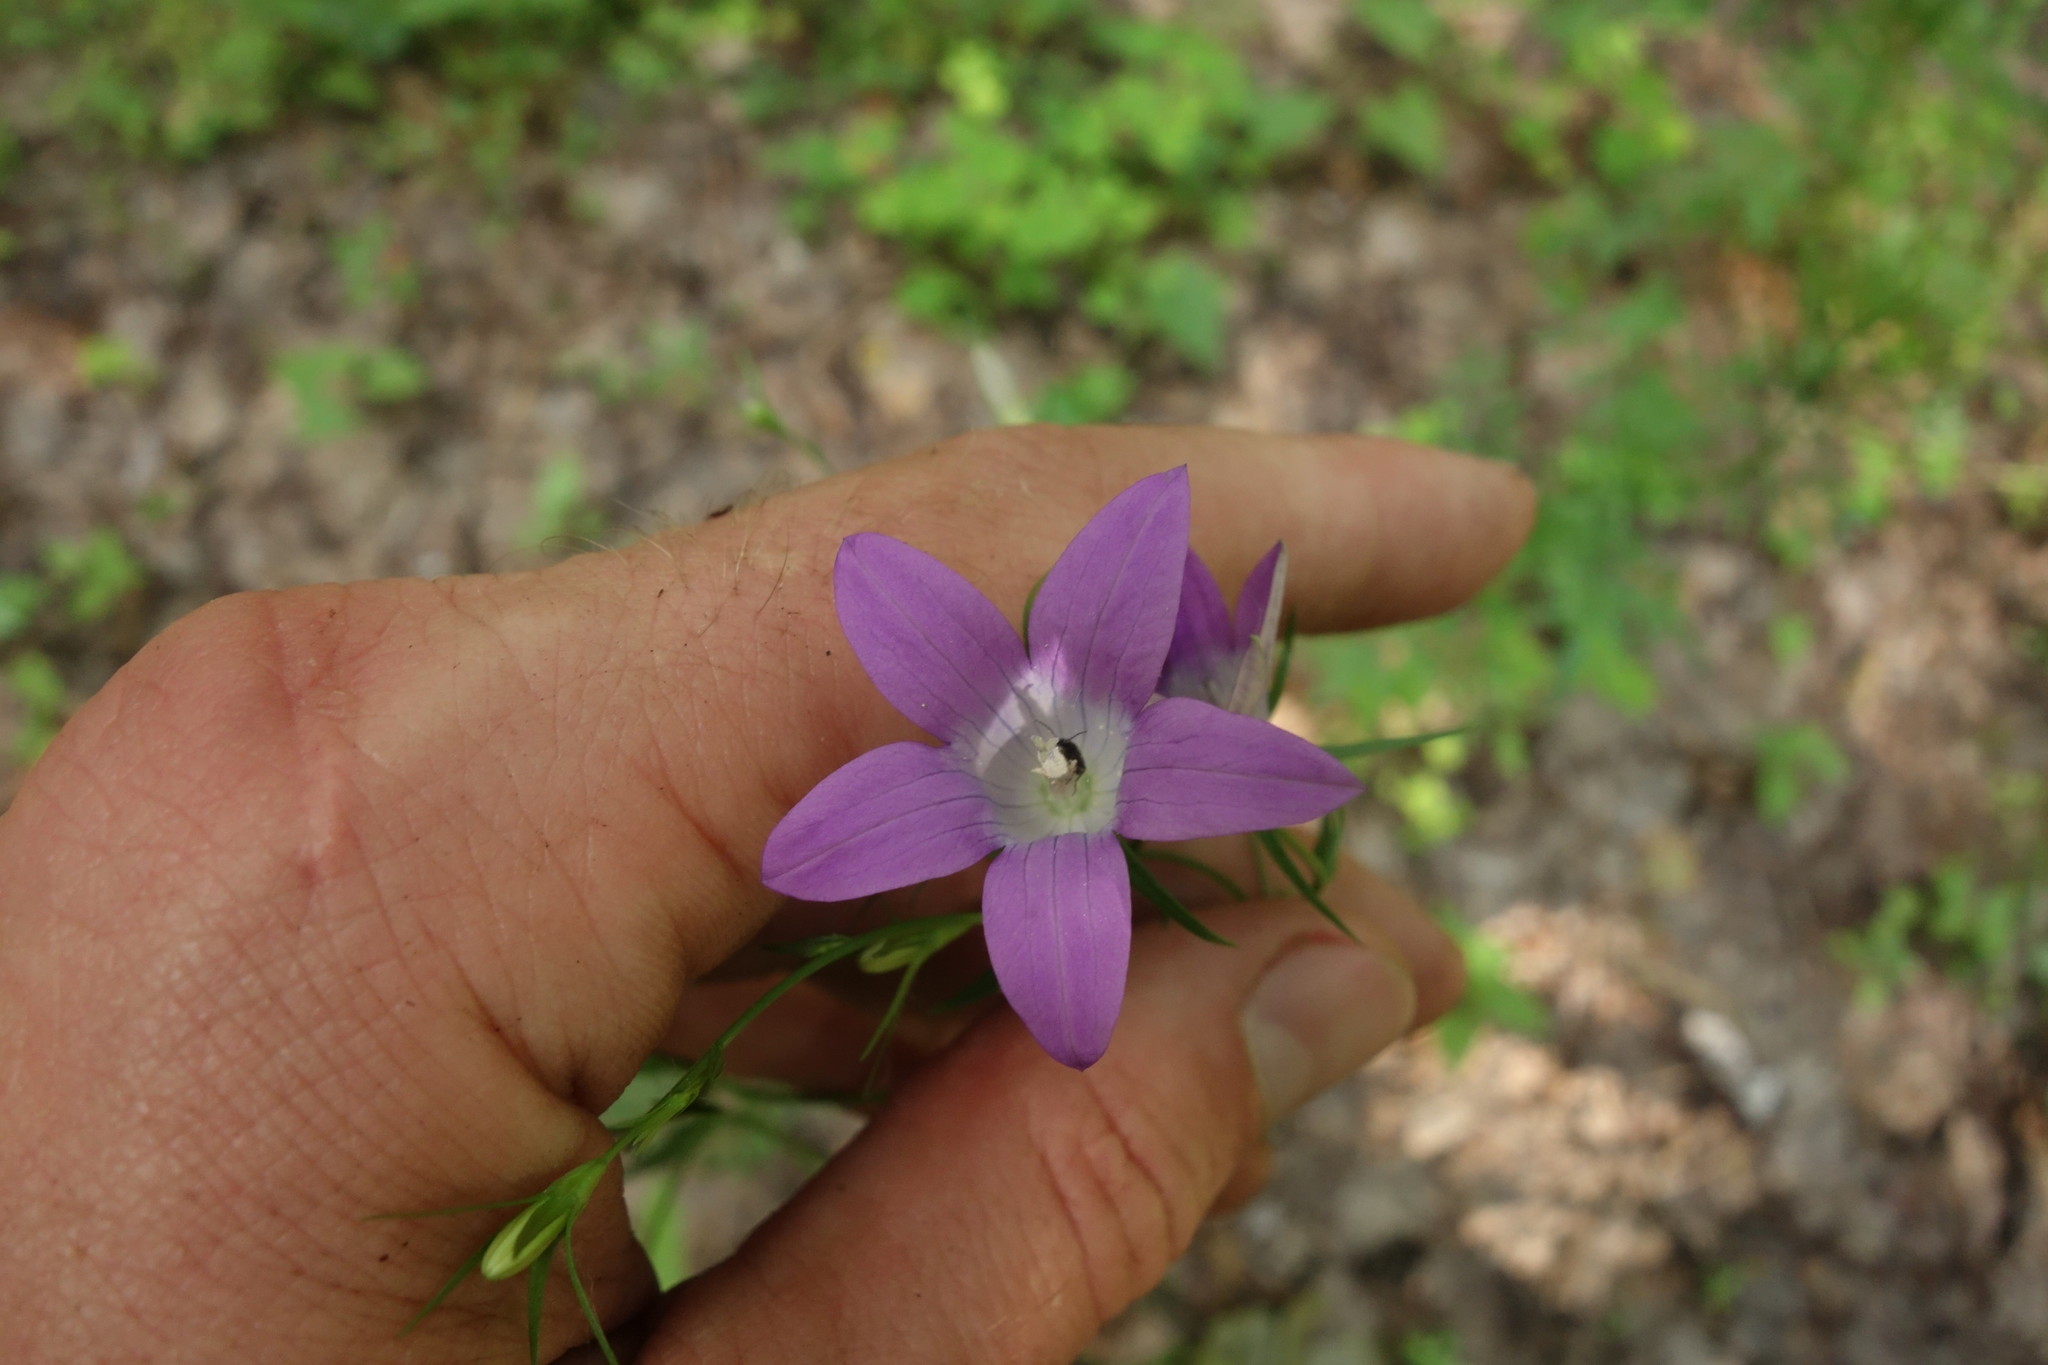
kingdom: Plantae
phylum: Tracheophyta
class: Magnoliopsida
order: Asterales
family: Campanulaceae
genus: Campanula
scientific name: Campanula patula
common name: Spreading bellflower
